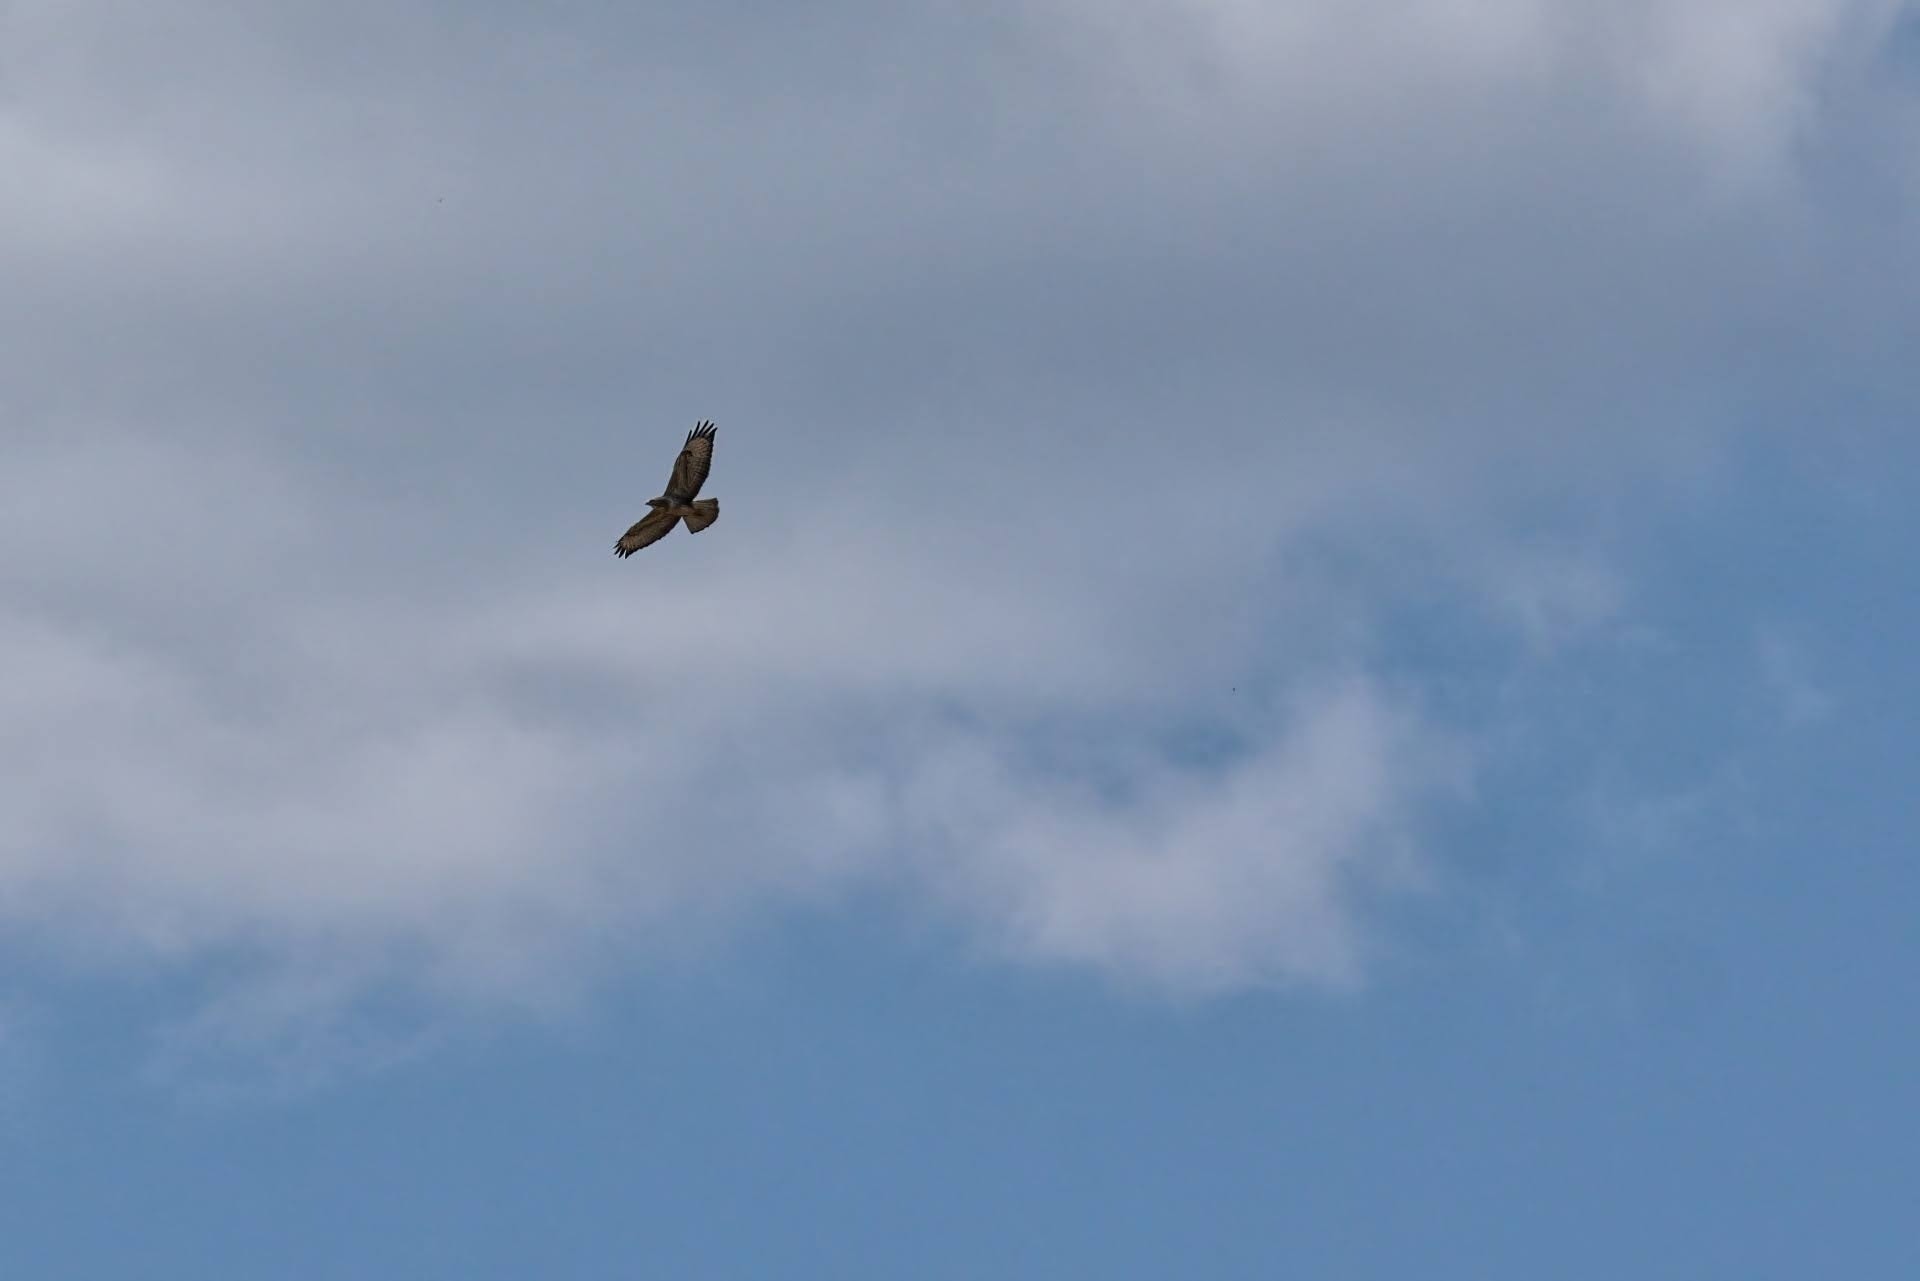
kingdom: Animalia
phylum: Chordata
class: Aves
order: Accipitriformes
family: Accipitridae
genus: Buteo
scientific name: Buteo buteo
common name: Common buzzard
